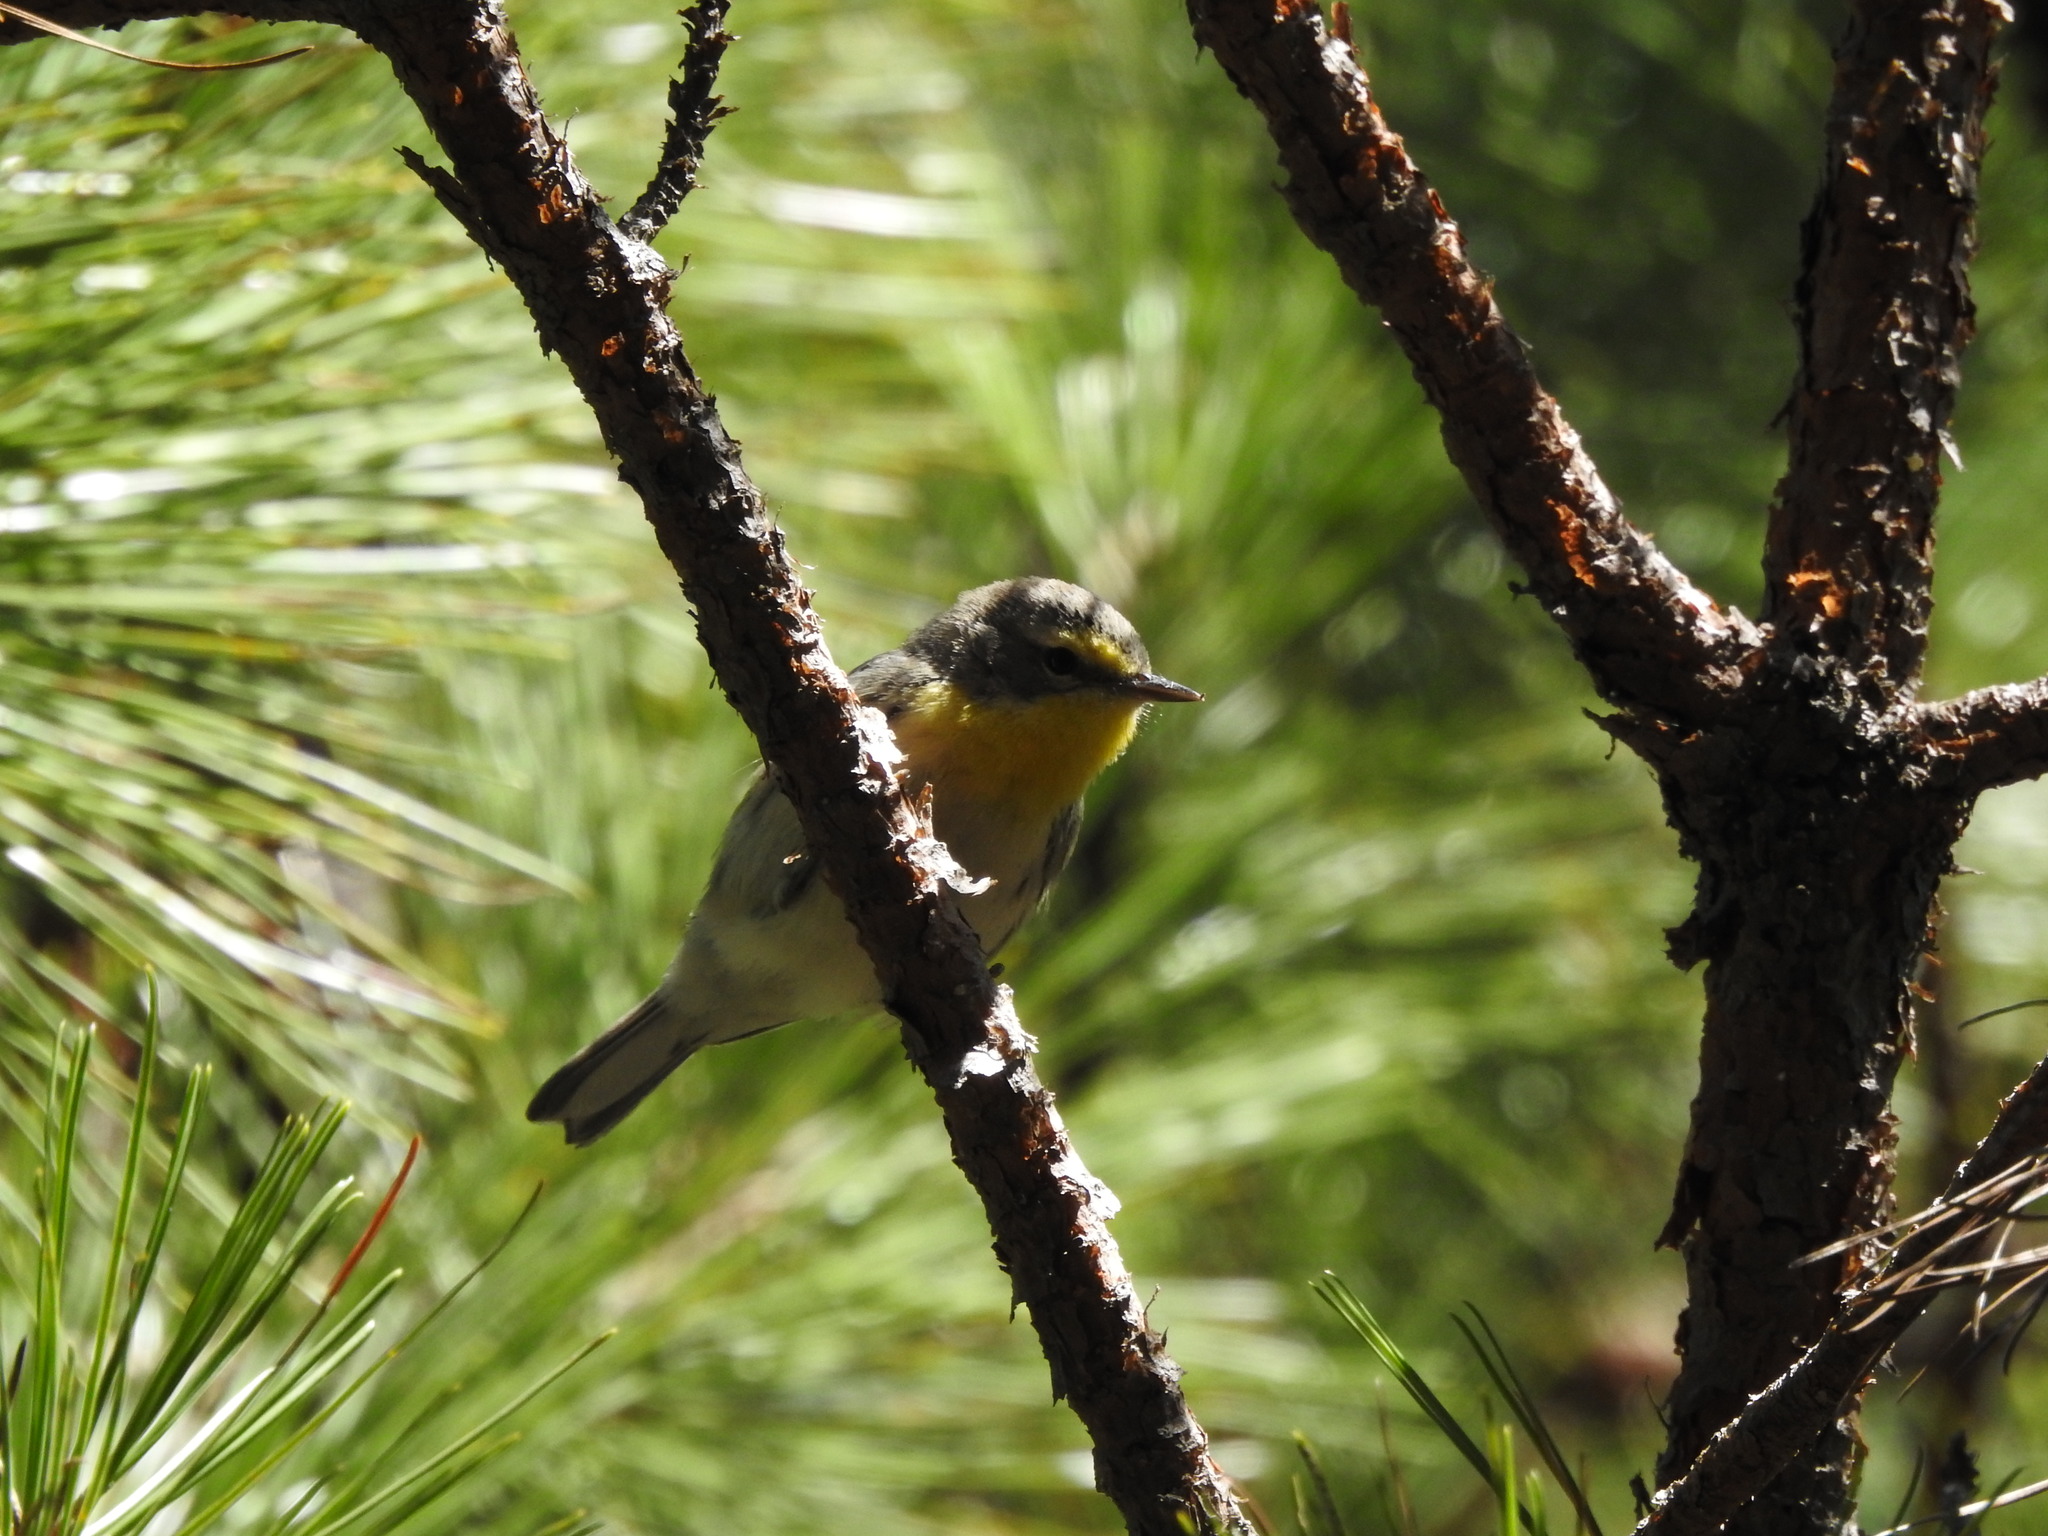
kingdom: Animalia
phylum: Chordata
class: Aves
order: Passeriformes
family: Parulidae
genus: Setophaga
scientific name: Setophaga graciae
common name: Grace's warbler
